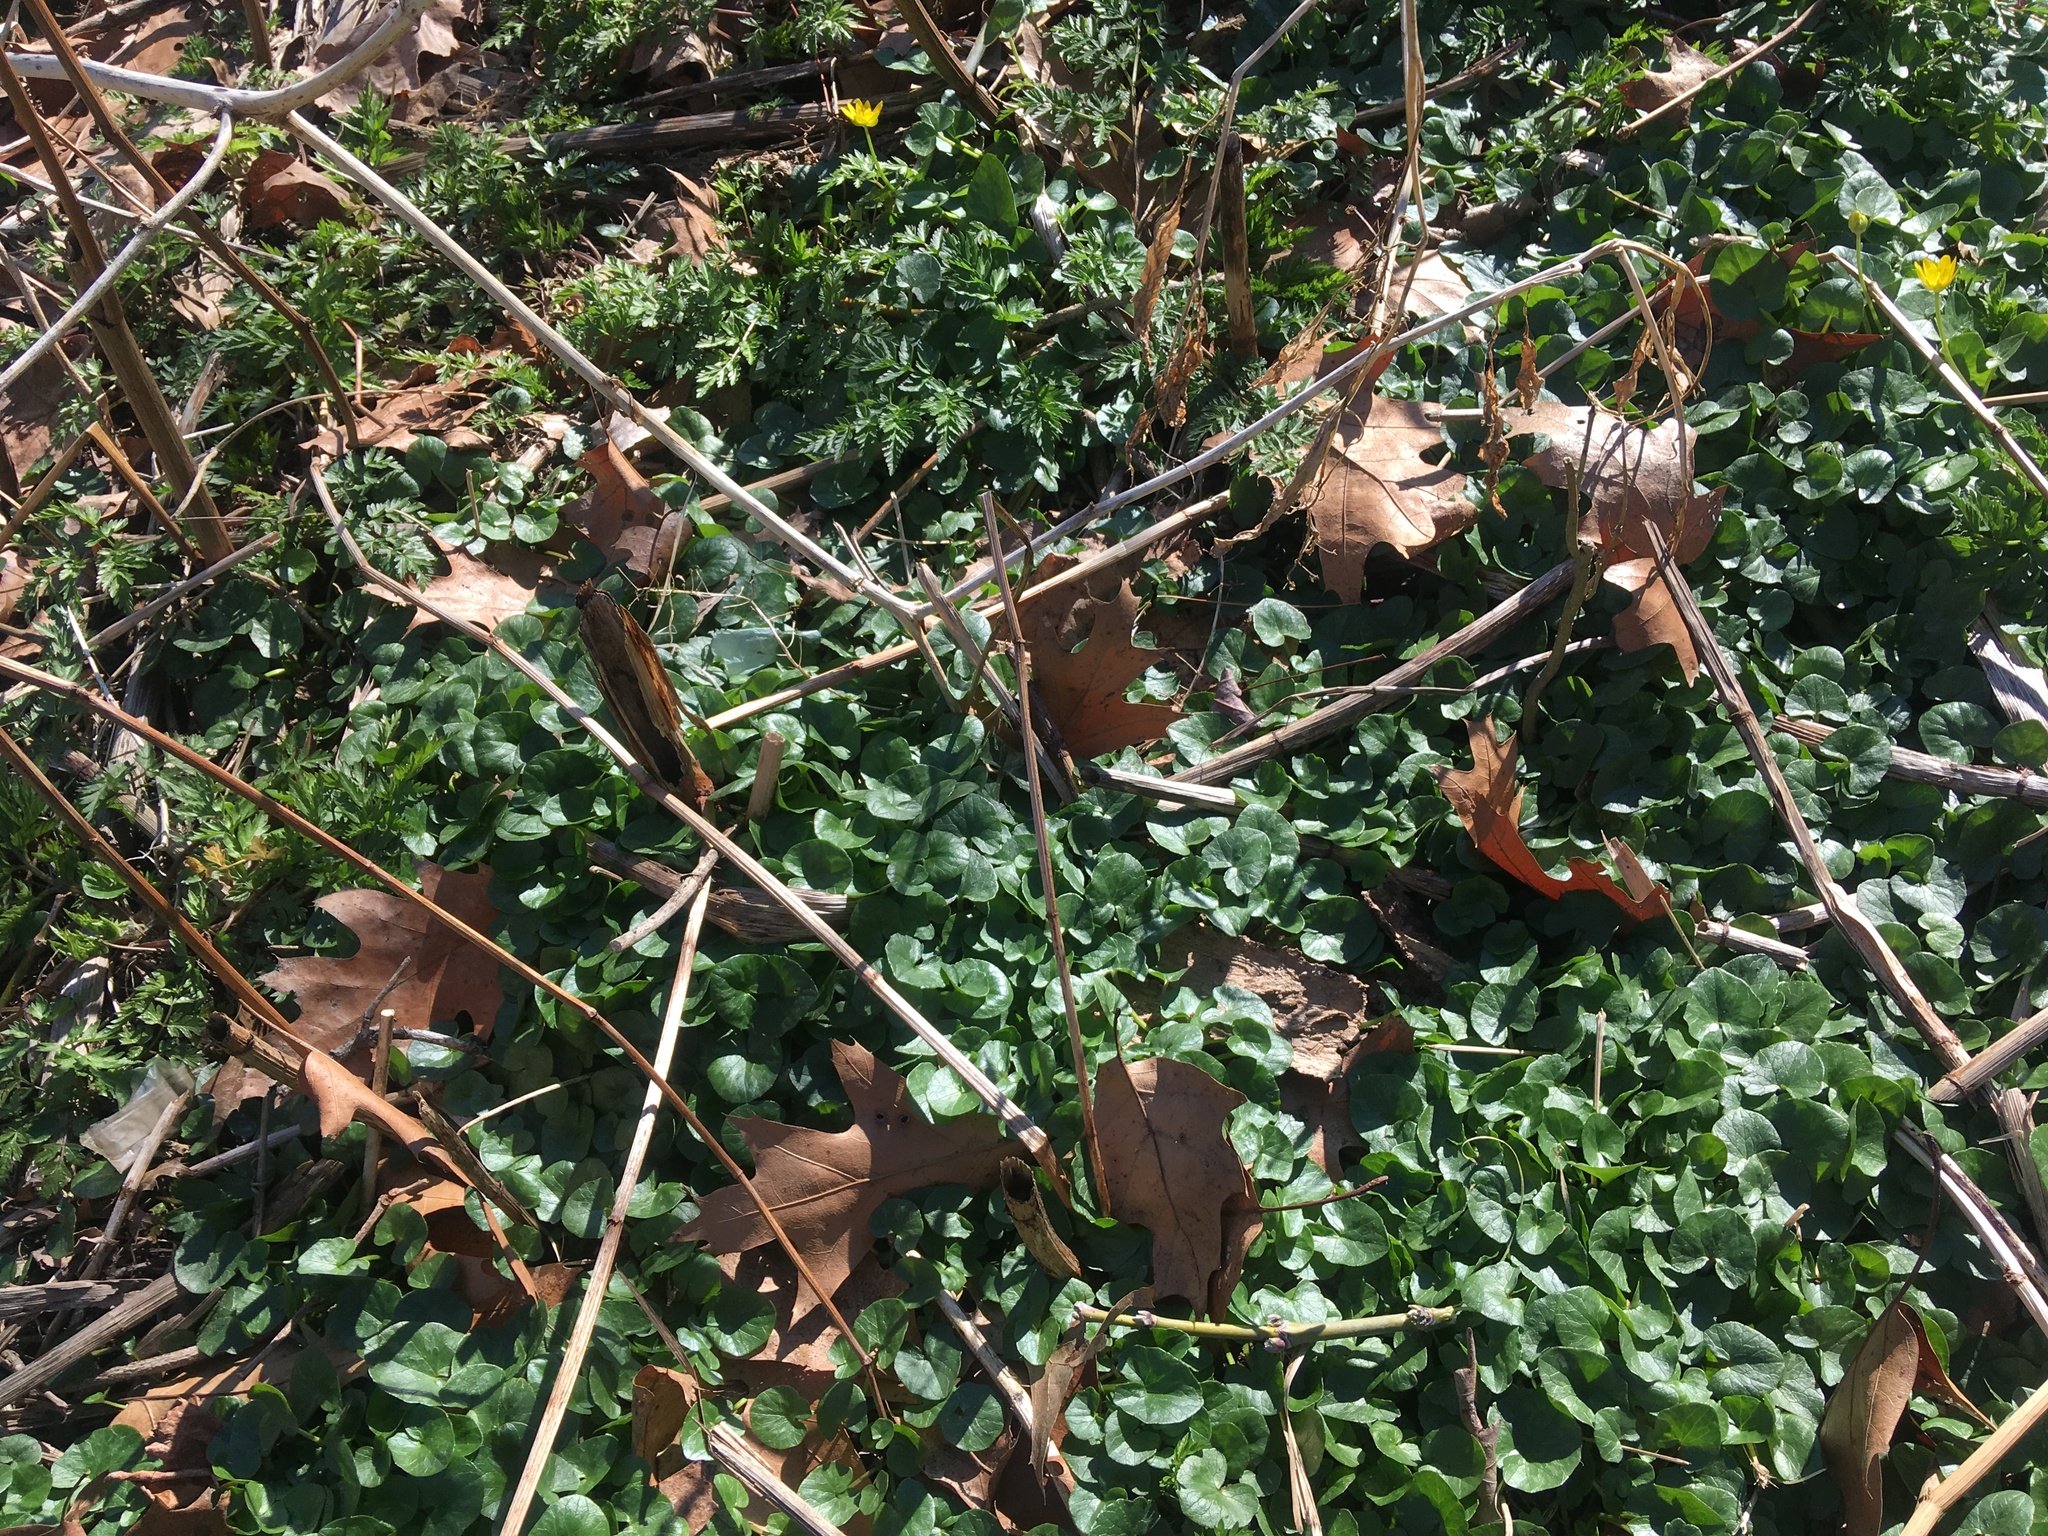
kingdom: Plantae
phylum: Tracheophyta
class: Magnoliopsida
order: Ranunculales
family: Ranunculaceae
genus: Ficaria
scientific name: Ficaria verna
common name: Lesser celandine
